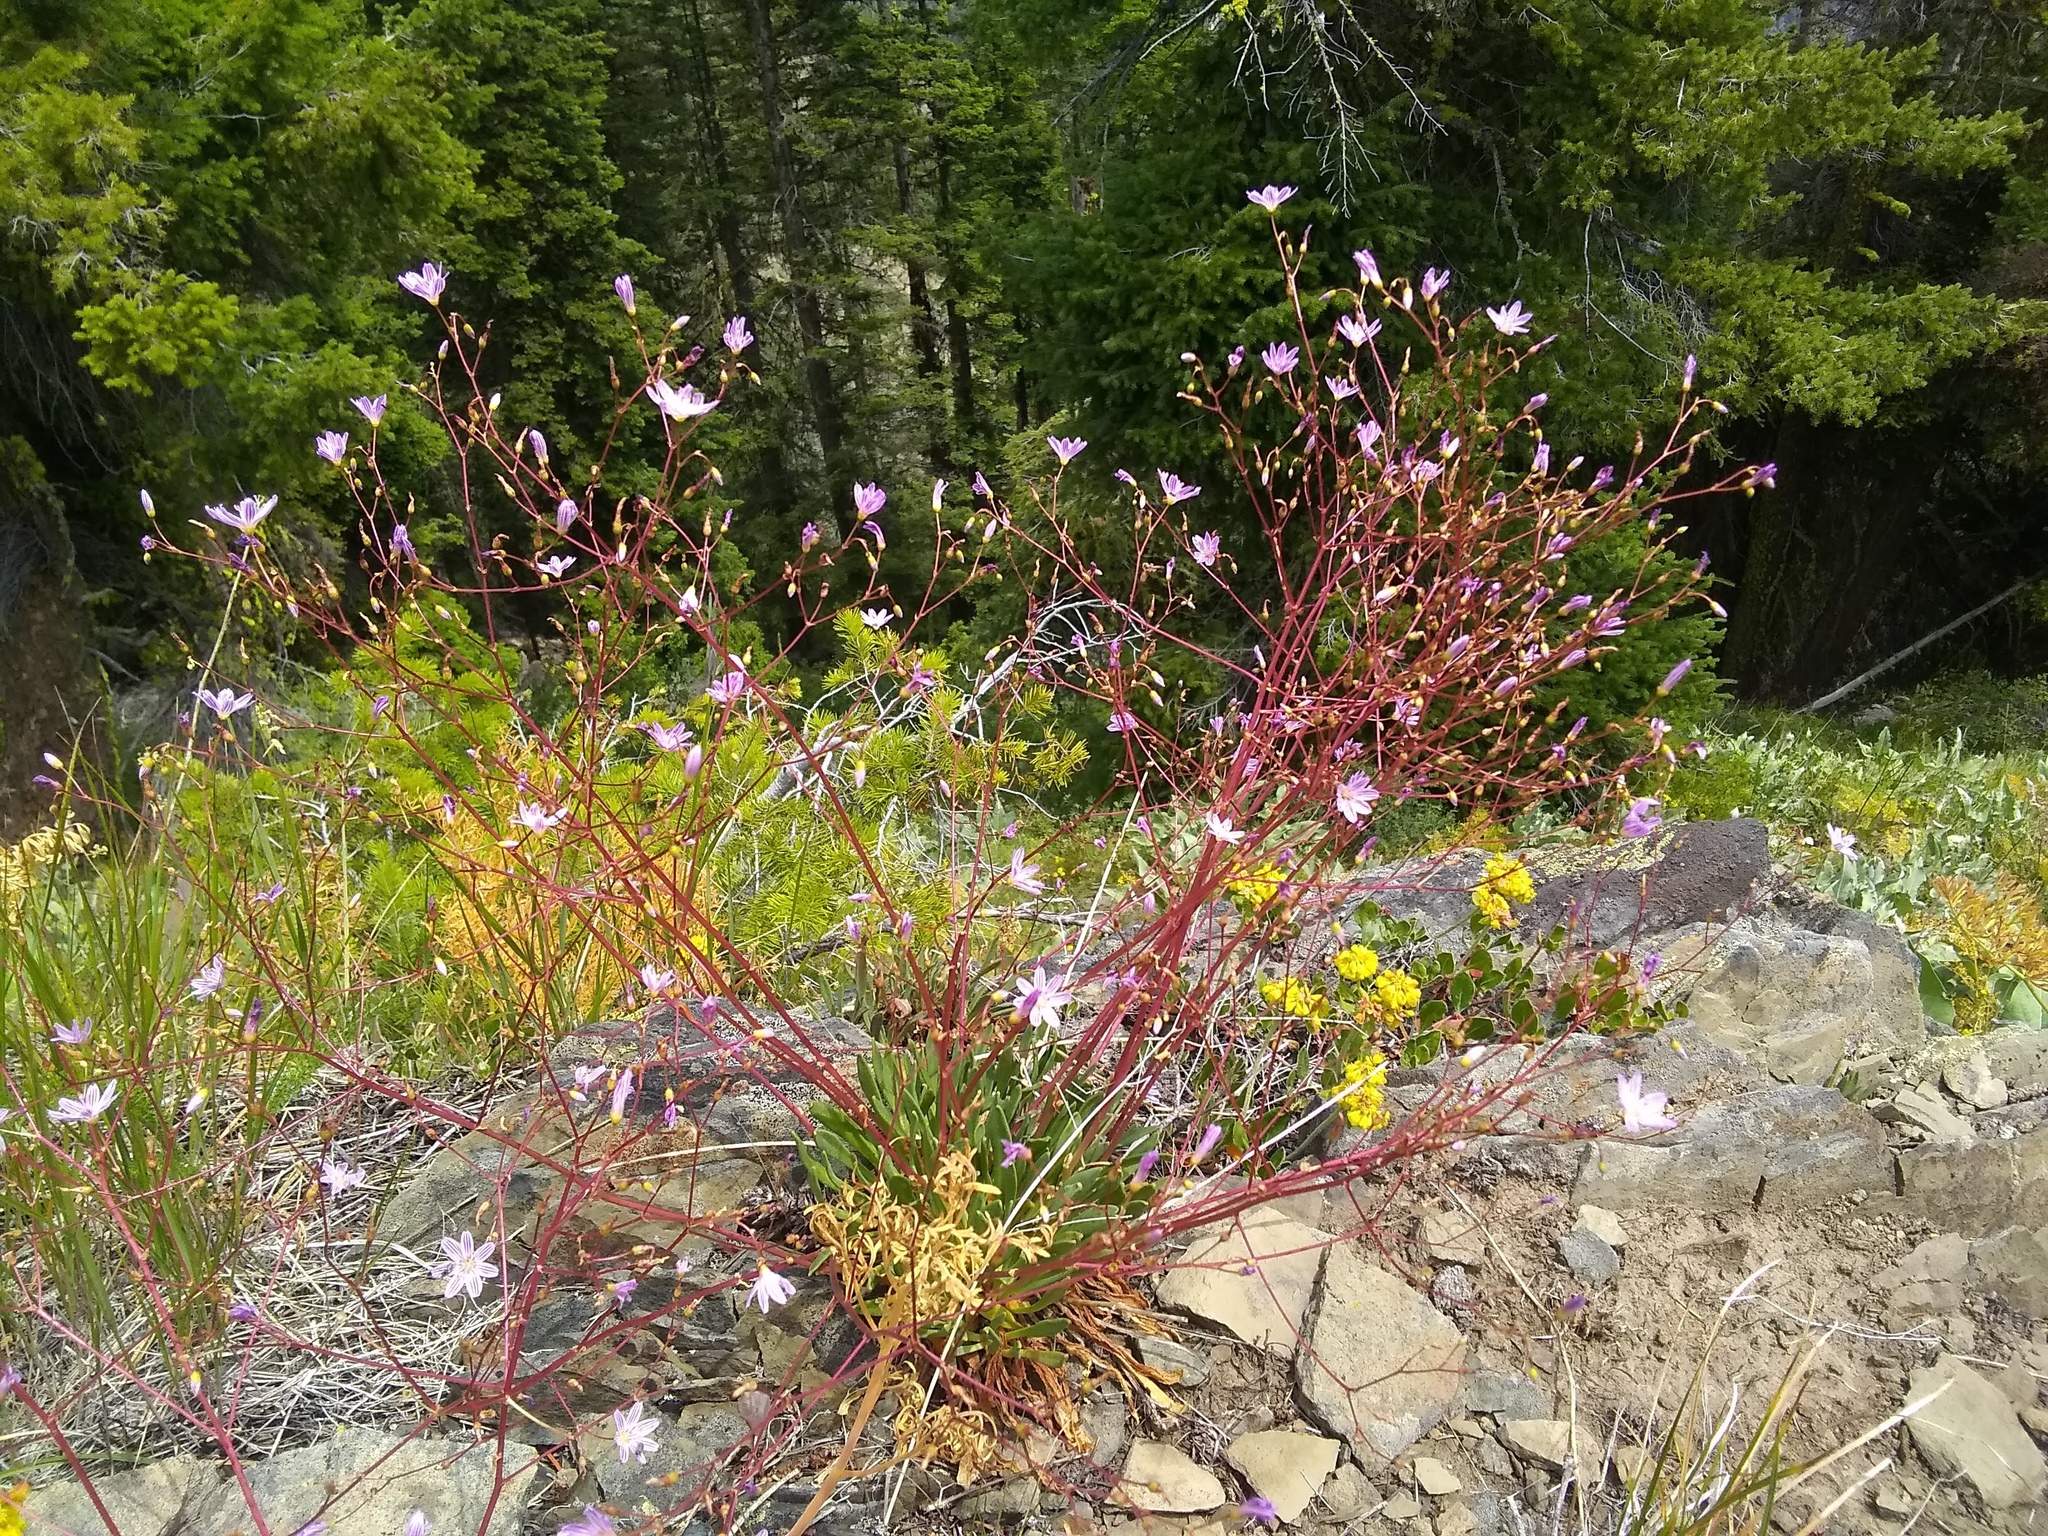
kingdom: Plantae
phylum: Tracheophyta
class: Magnoliopsida
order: Caryophyllales
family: Montiaceae
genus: Lewisia
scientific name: Lewisia columbiana
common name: Columbia lewisia
